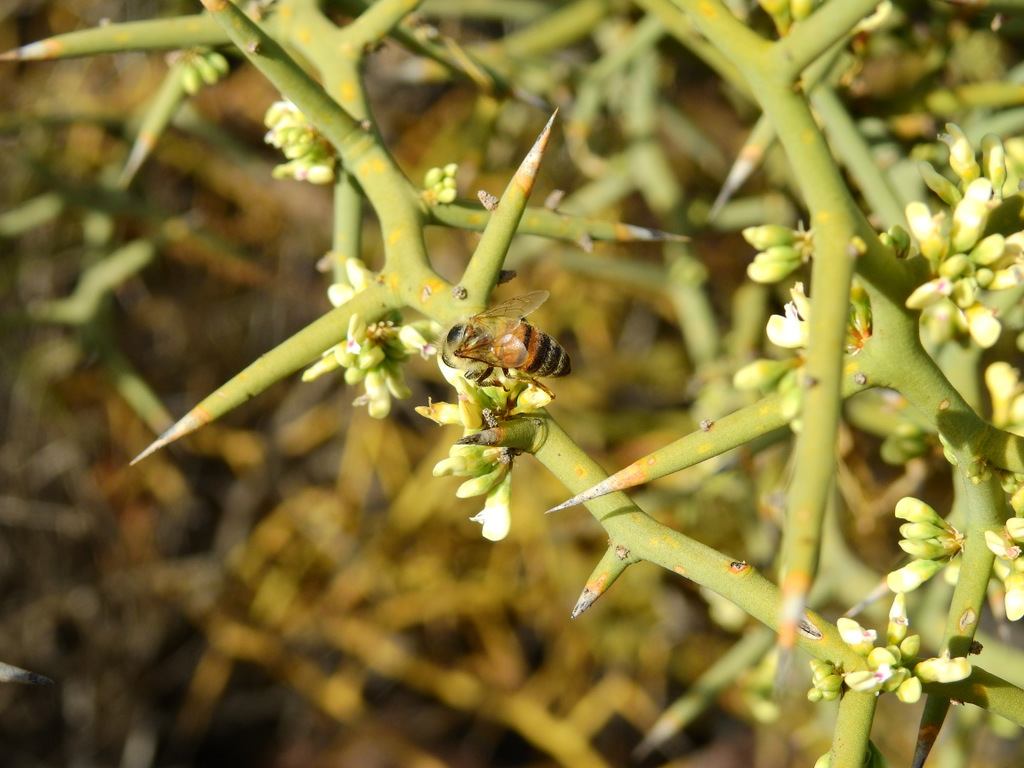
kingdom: Animalia
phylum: Arthropoda
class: Insecta
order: Hymenoptera
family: Apidae
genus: Apis
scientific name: Apis mellifera
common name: Honey bee
